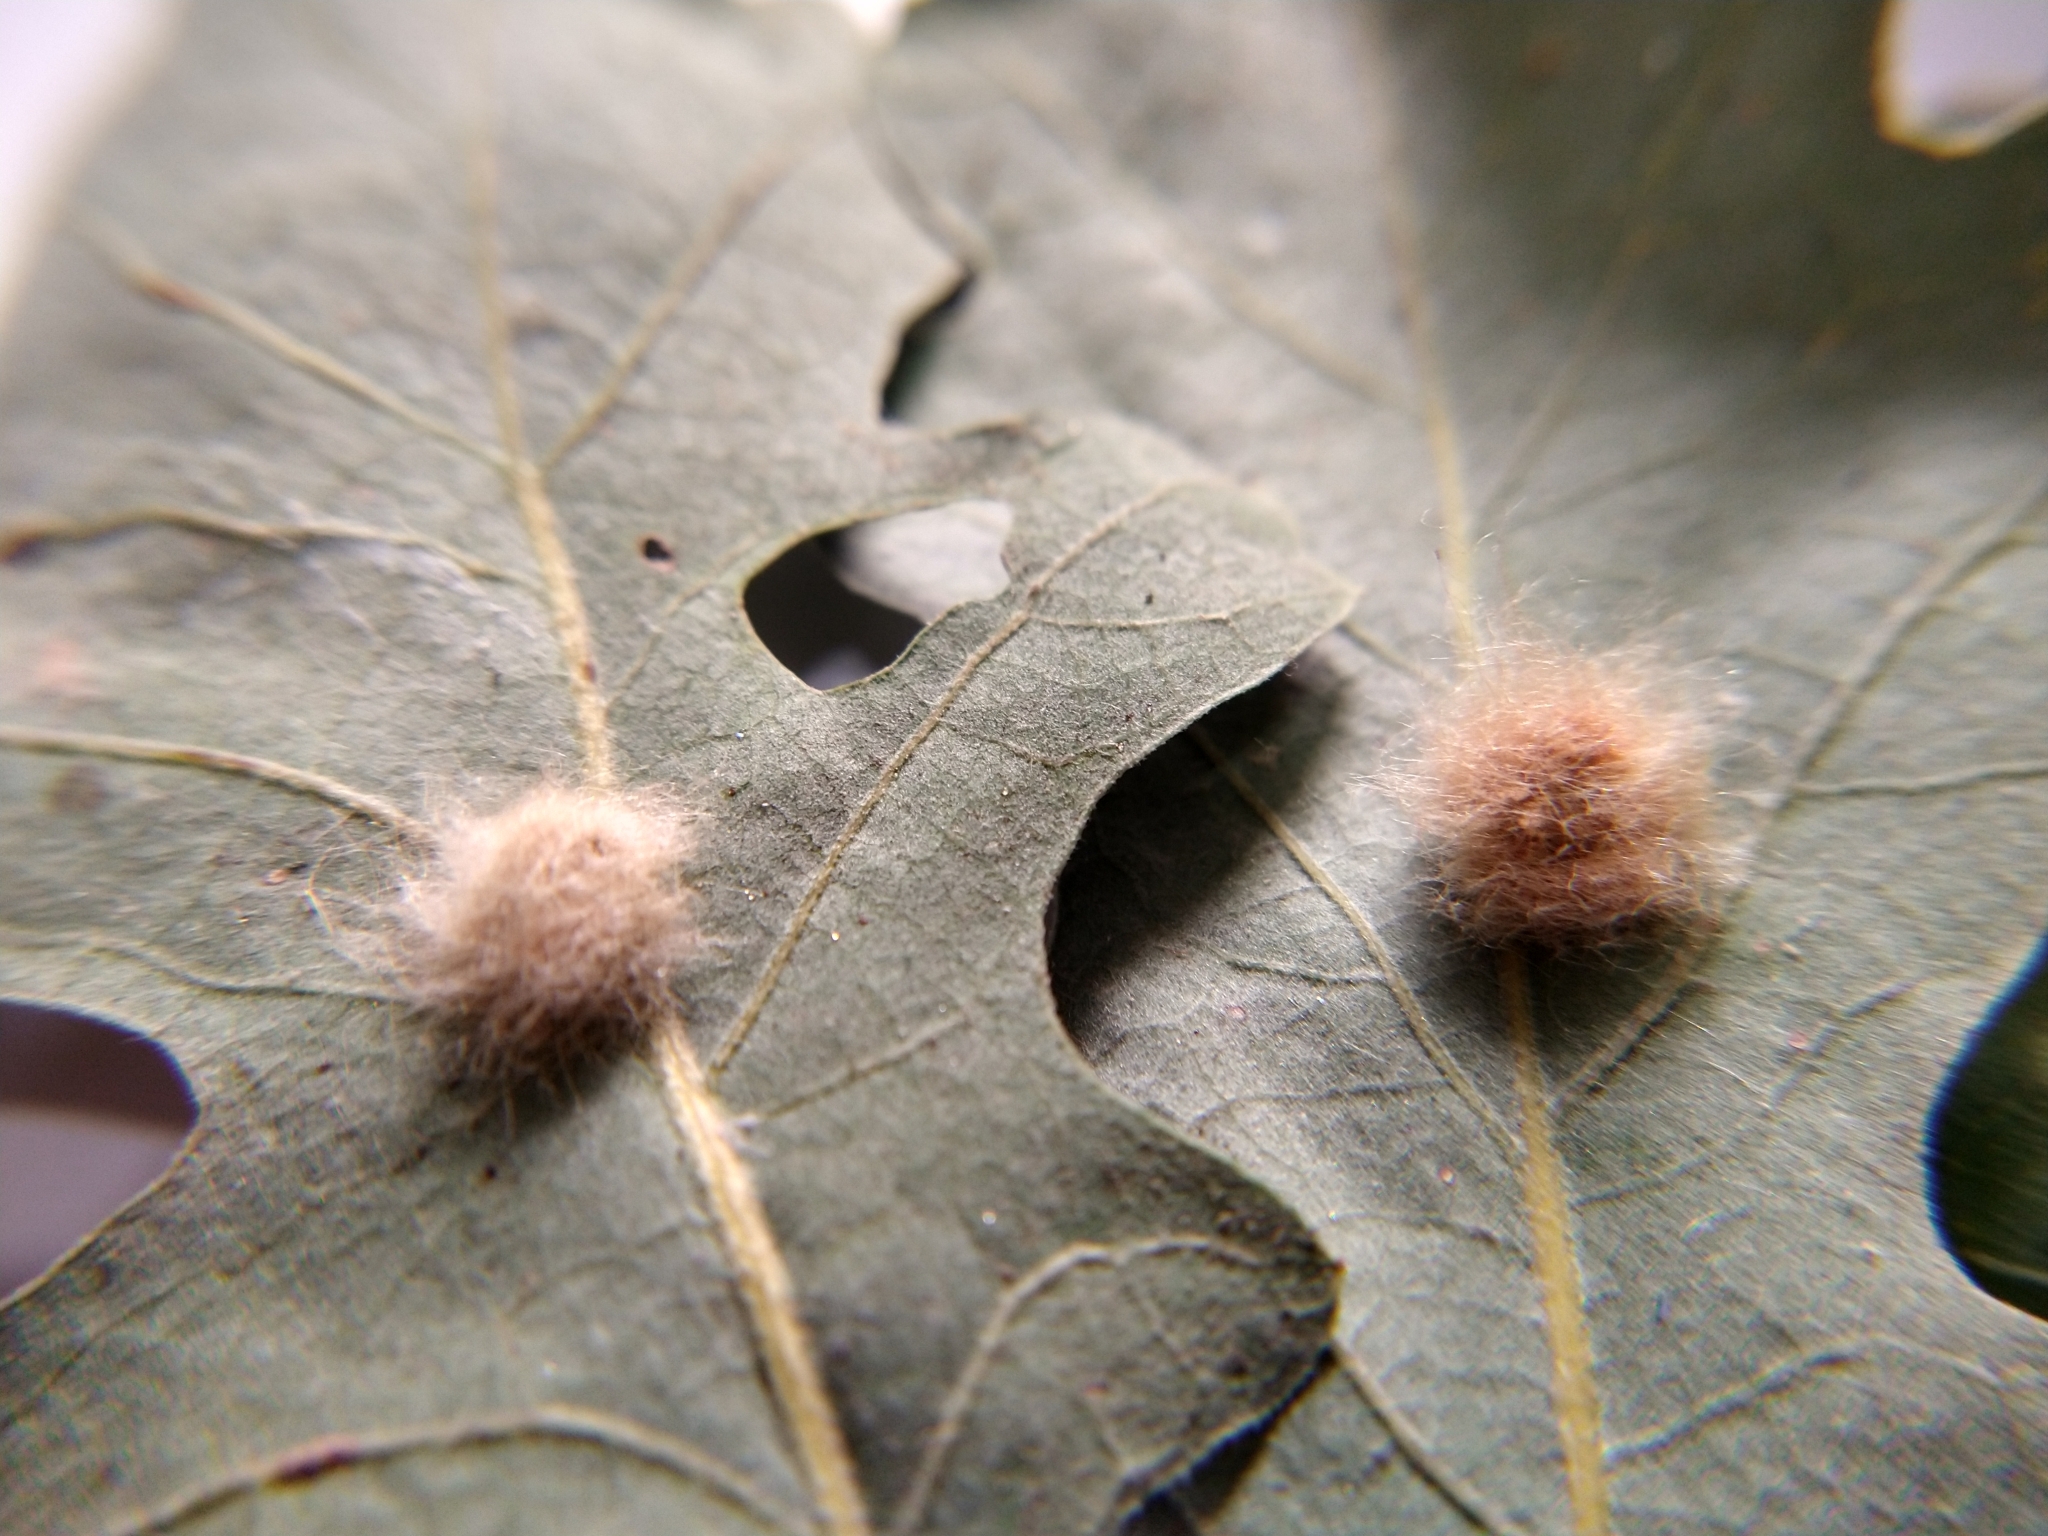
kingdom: Animalia
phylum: Arthropoda
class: Insecta
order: Hymenoptera
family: Cynipidae
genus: Andricus
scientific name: Andricus Druon fullawayi
